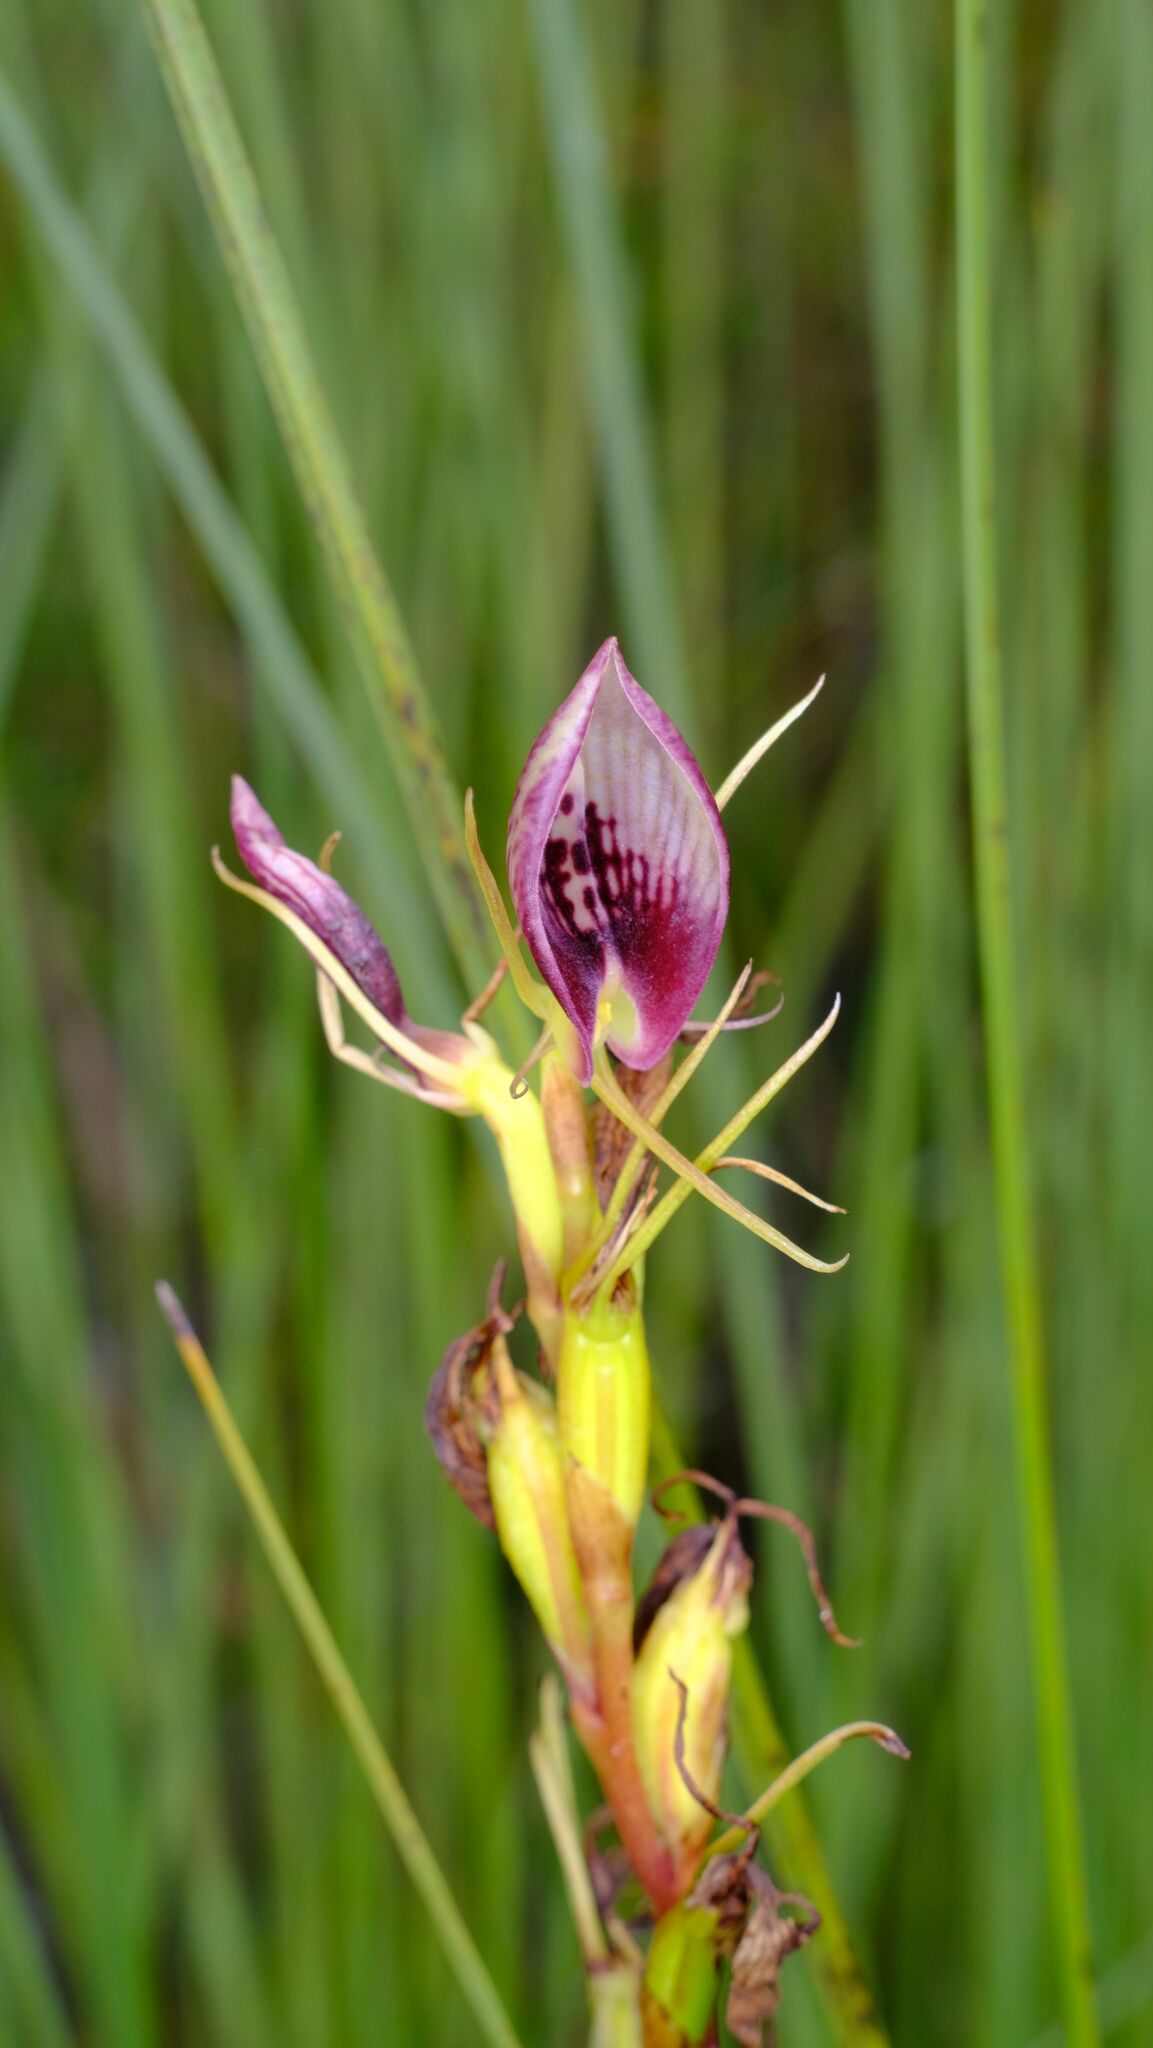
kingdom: Plantae
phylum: Tracheophyta
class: Liliopsida
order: Asparagales
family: Orchidaceae
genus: Cryptostylis
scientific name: Cryptostylis erecta
